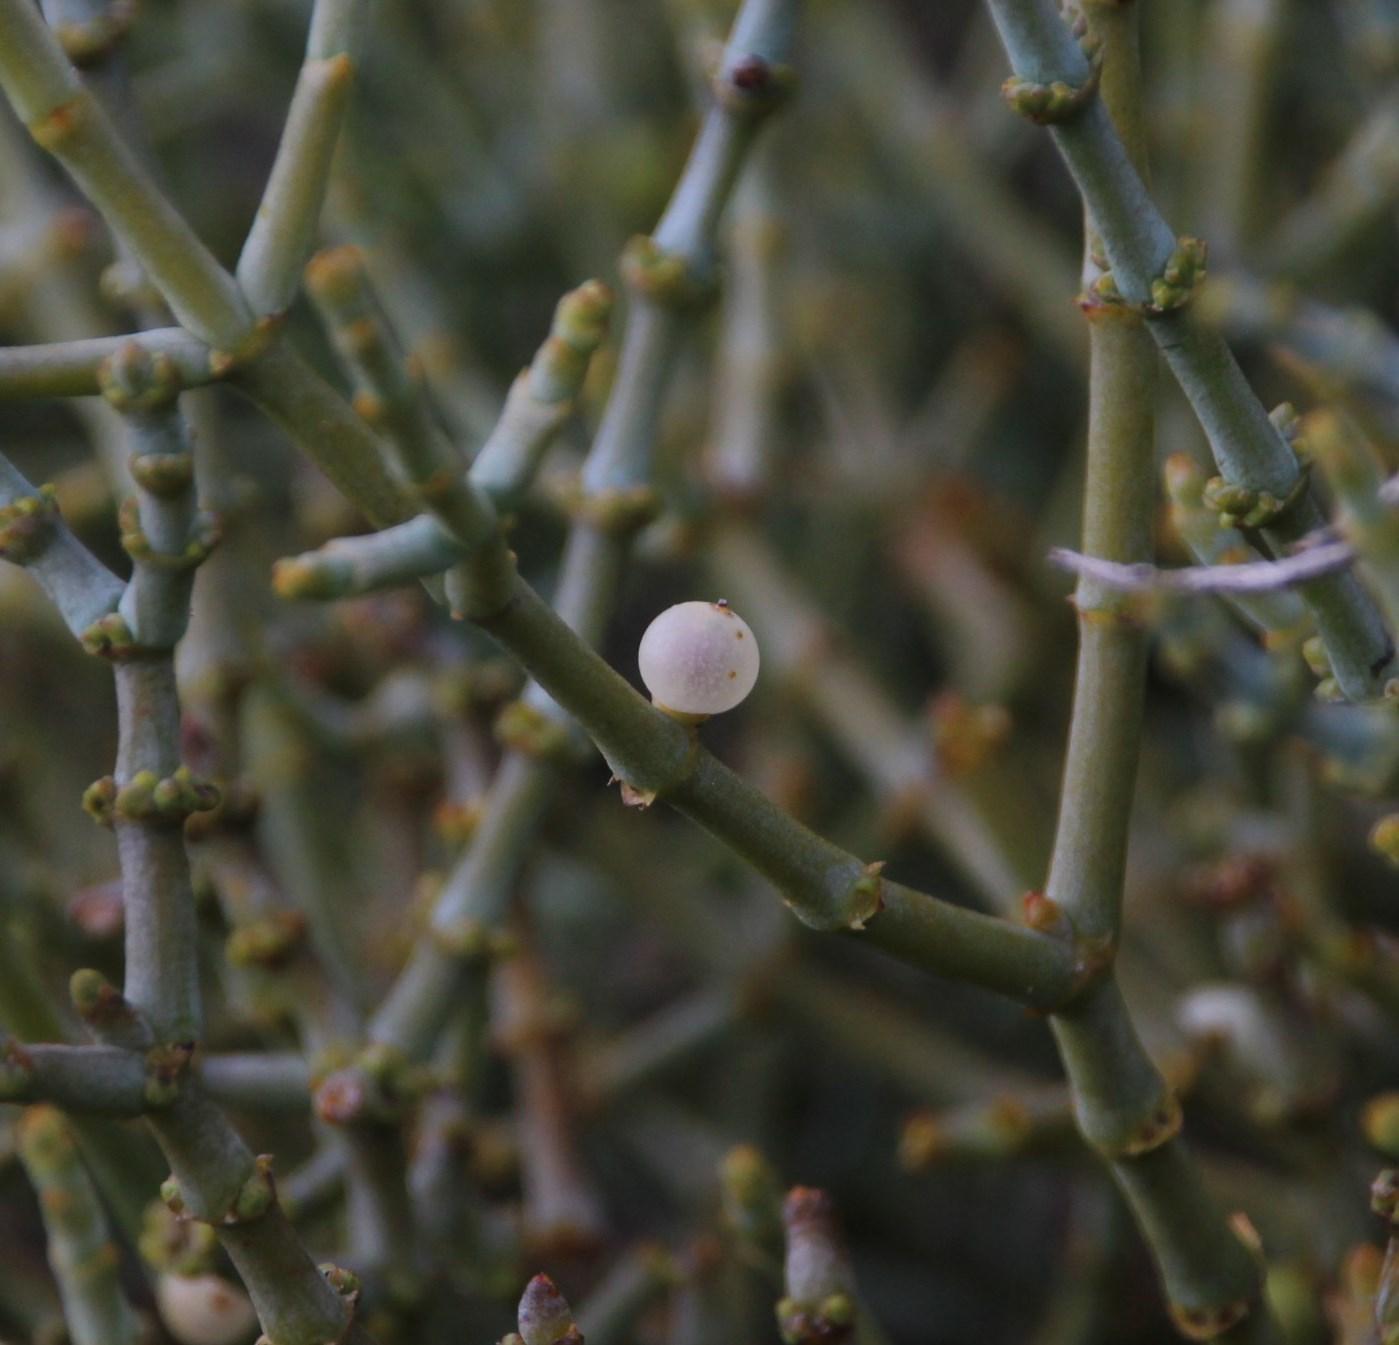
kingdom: Plantae
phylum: Tracheophyta
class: Magnoliopsida
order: Santalales
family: Viscaceae
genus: Viscum
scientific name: Viscum capense
